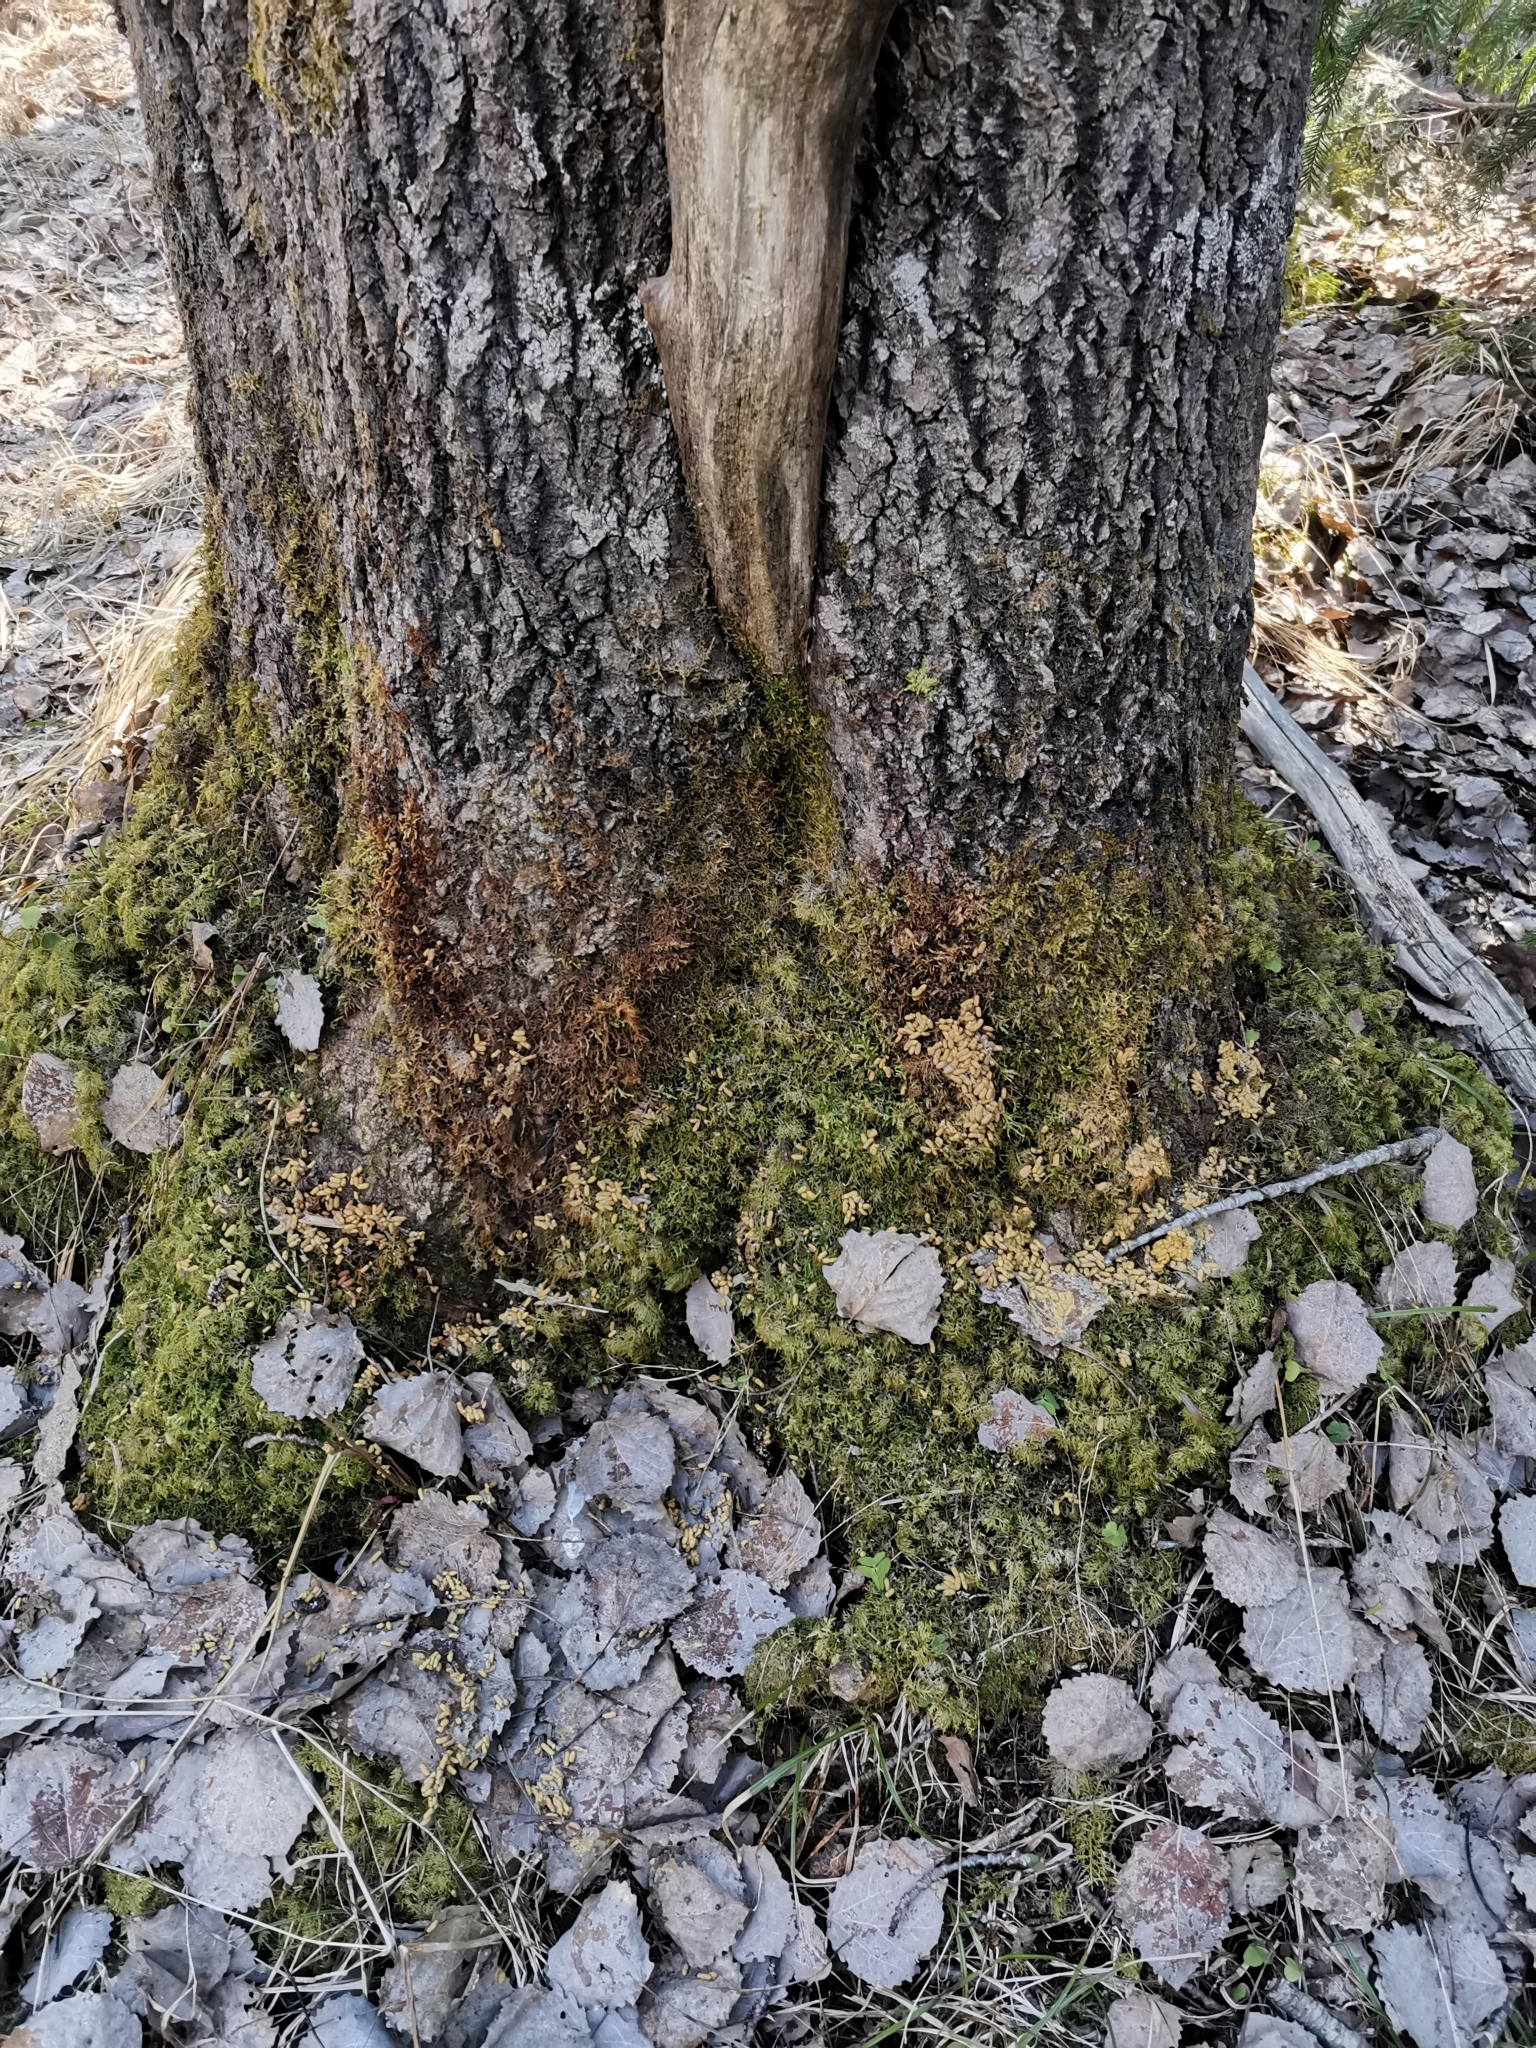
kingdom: Animalia
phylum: Chordata
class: Mammalia
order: Rodentia
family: Sciuridae
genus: Pteromys
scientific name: Pteromys volans
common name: Siberian flying squirrel
